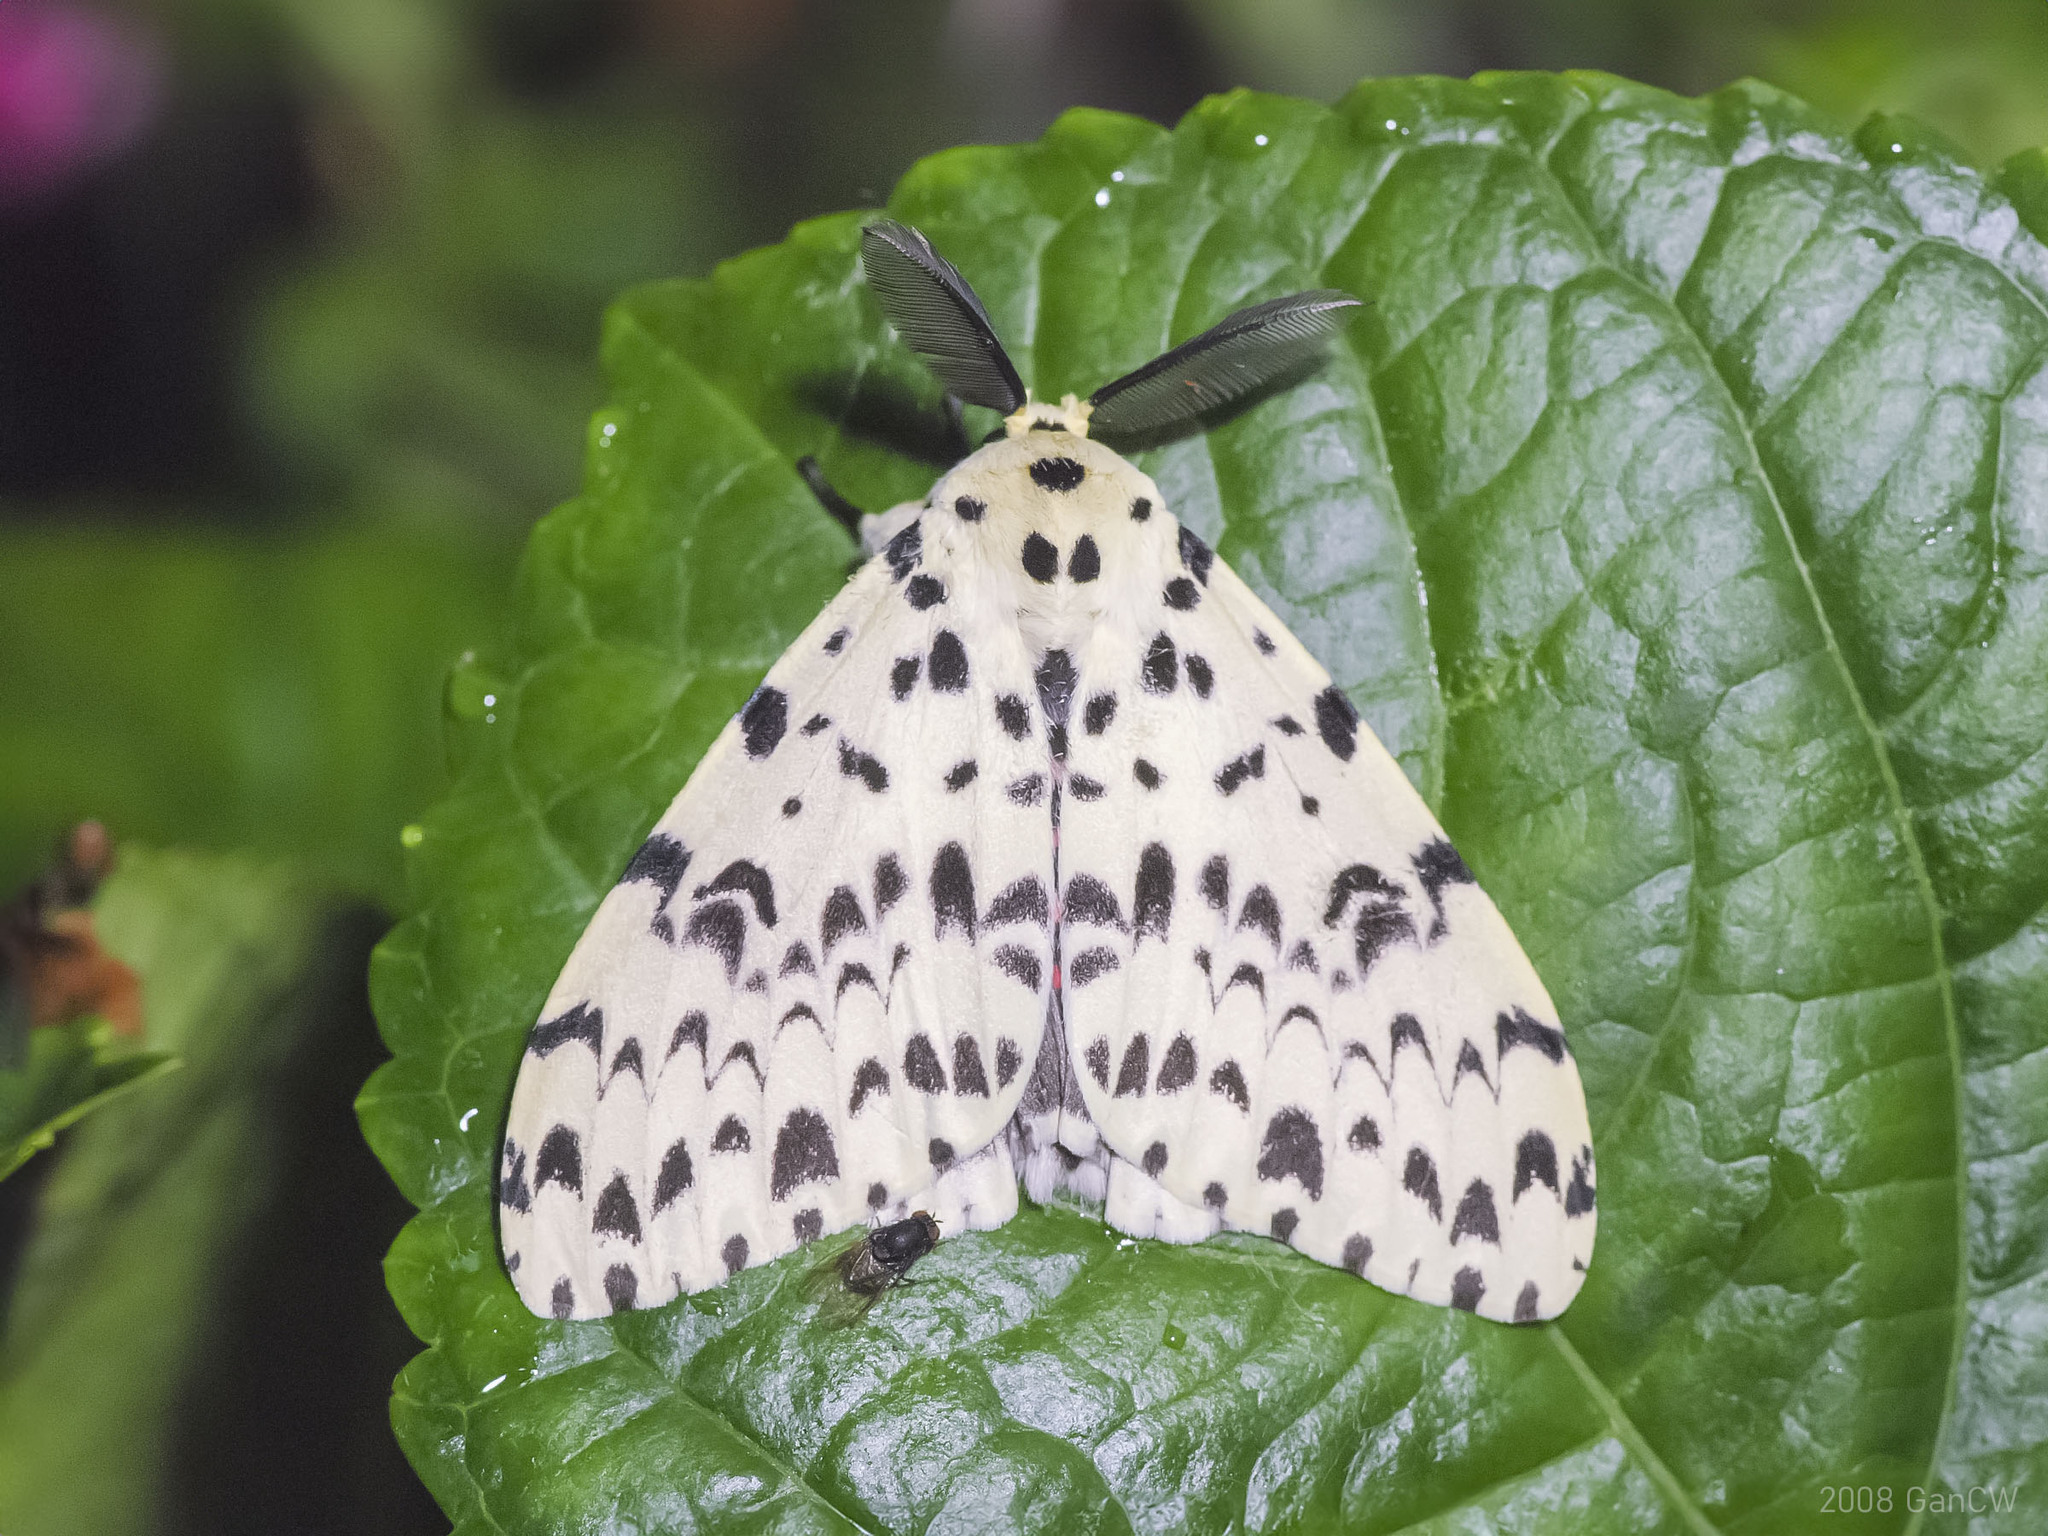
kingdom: Animalia
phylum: Arthropoda
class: Insecta
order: Lepidoptera
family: Erebidae
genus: Lymantria
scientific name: Lymantria narindra
